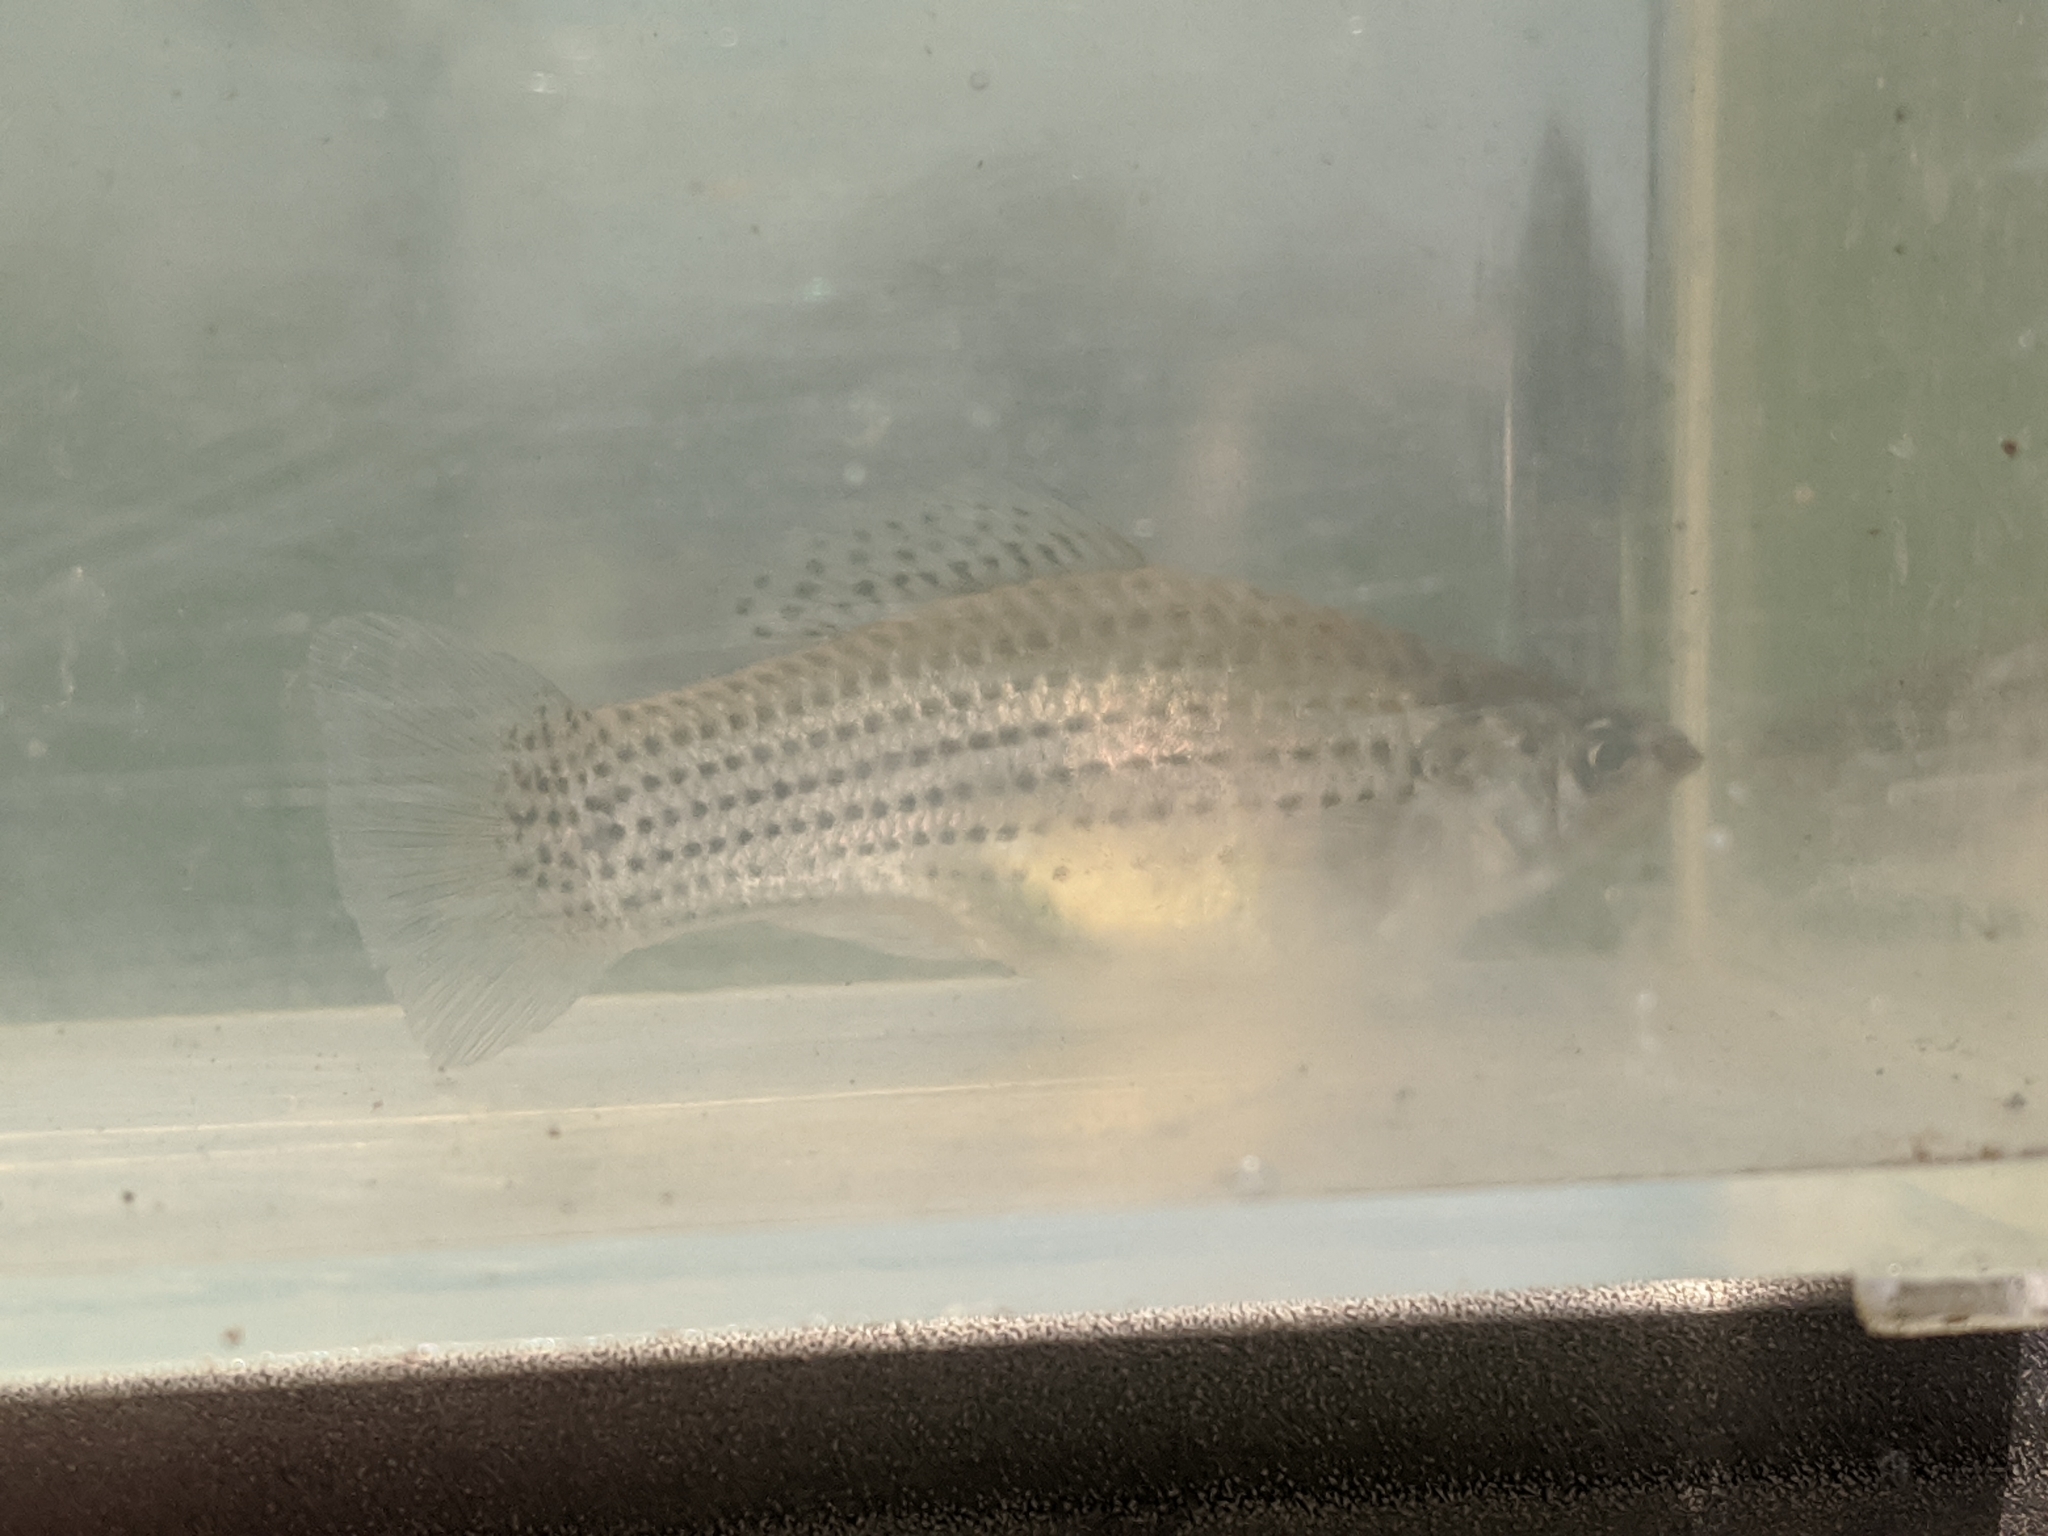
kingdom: Animalia
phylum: Chordata
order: Cyprinodontiformes
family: Poeciliidae
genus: Poecilia
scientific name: Poecilia latipinna
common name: Sailfin molly
